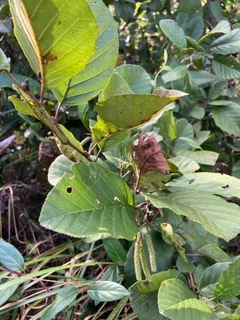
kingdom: Plantae
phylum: Tracheophyta
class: Magnoliopsida
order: Fagales
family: Betulaceae
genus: Alnus
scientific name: Alnus serrulata
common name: Hazel alder
